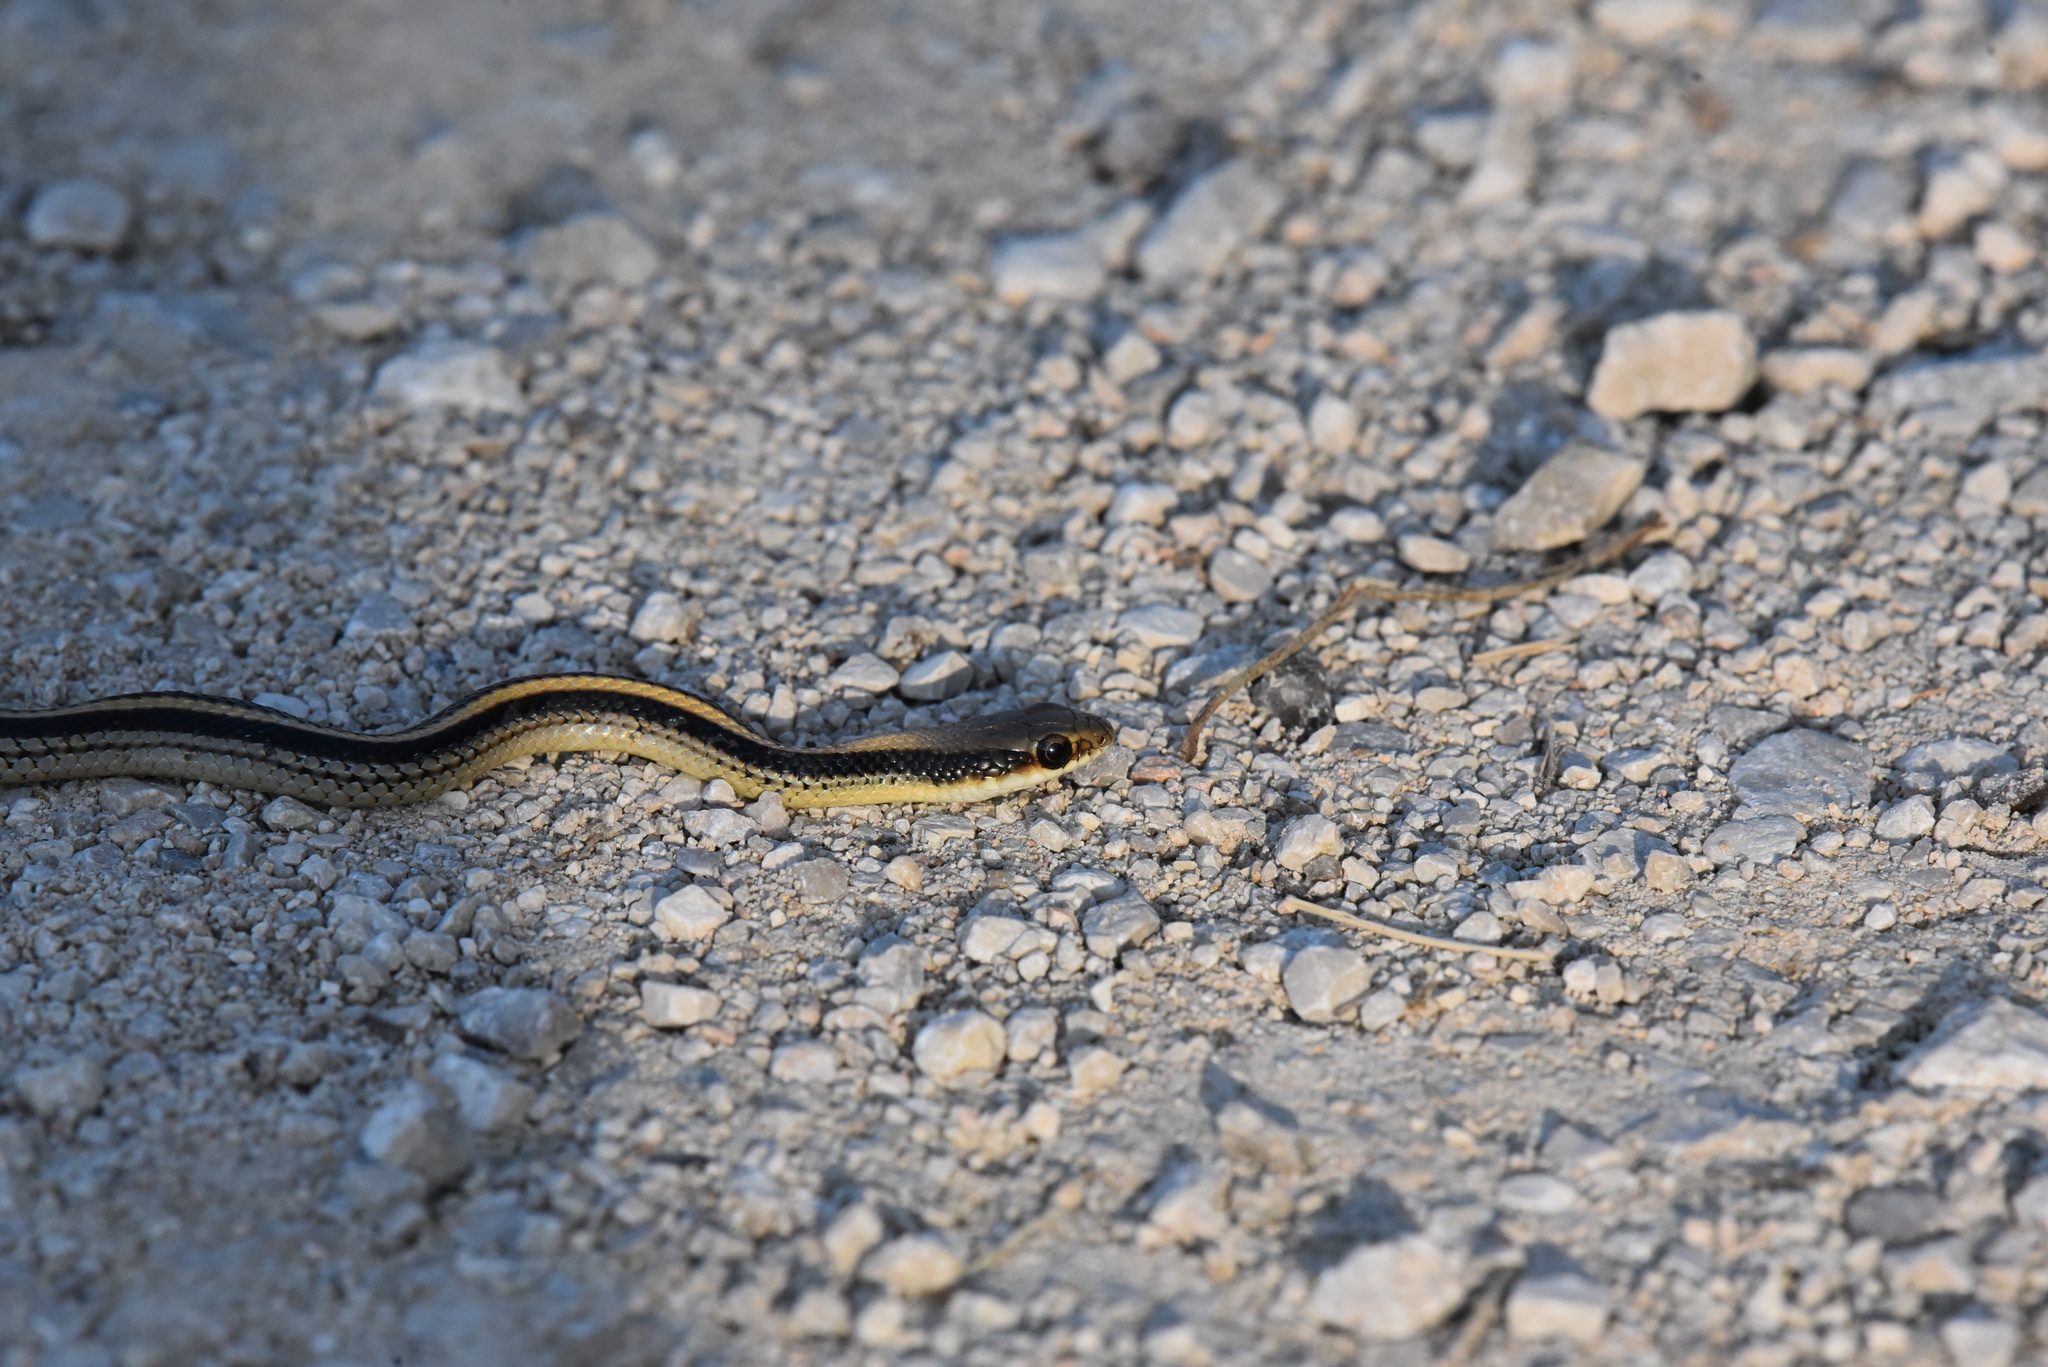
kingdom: Animalia
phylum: Chordata
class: Squamata
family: Colubridae
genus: Salvadora
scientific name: Salvadora lineata
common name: Texas patchnose snake
